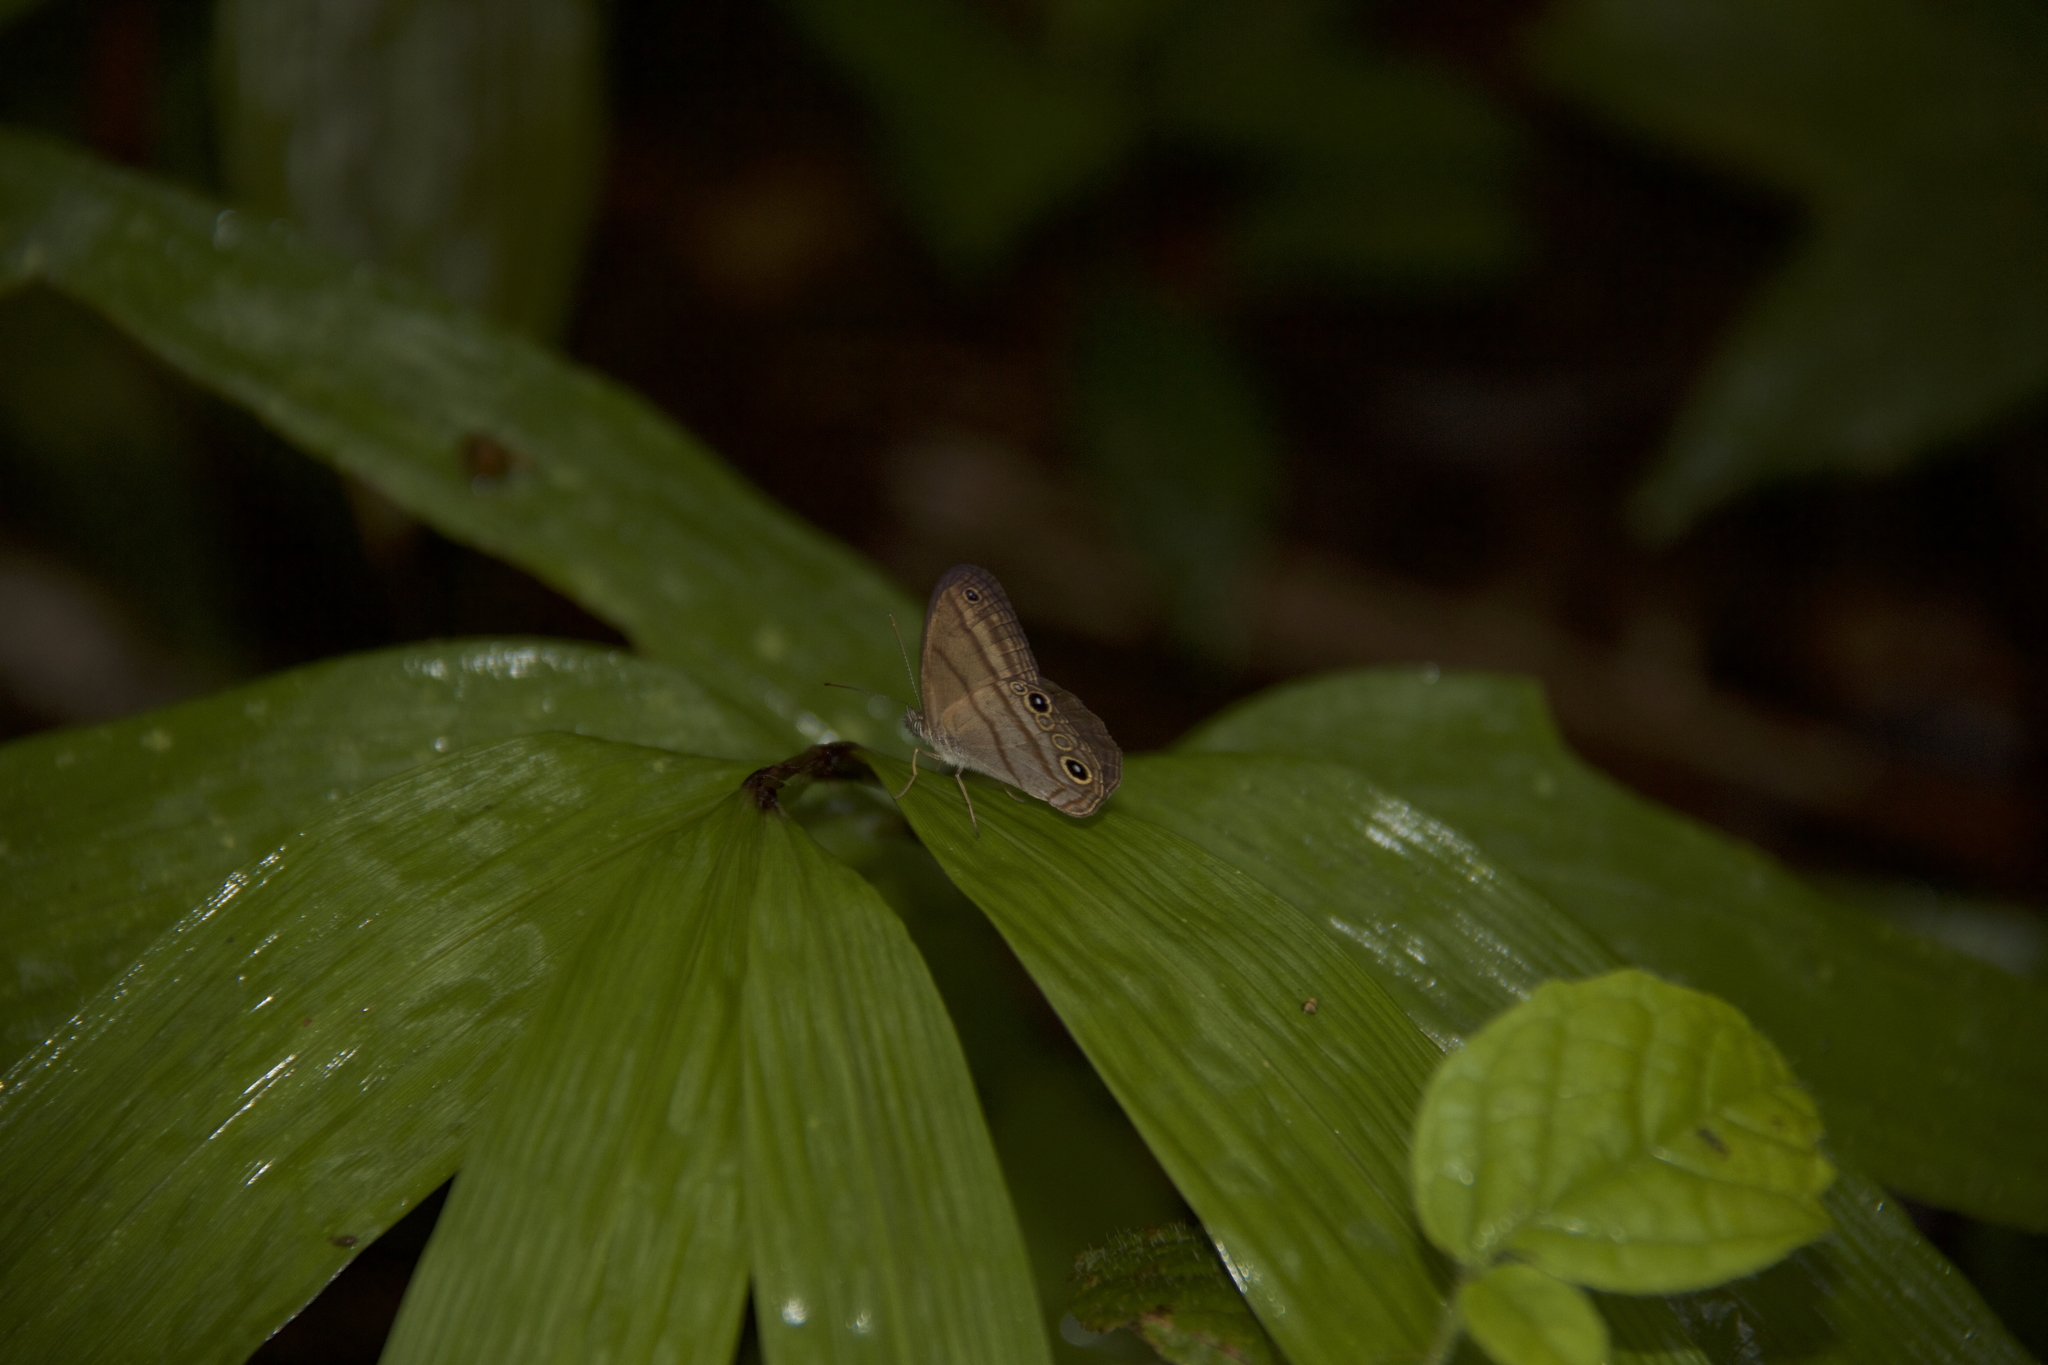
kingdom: Animalia
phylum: Arthropoda
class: Insecta
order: Lepidoptera
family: Nymphalidae
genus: Hermeuptychia
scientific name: Hermeuptychia hermes
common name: Hermes satyr
